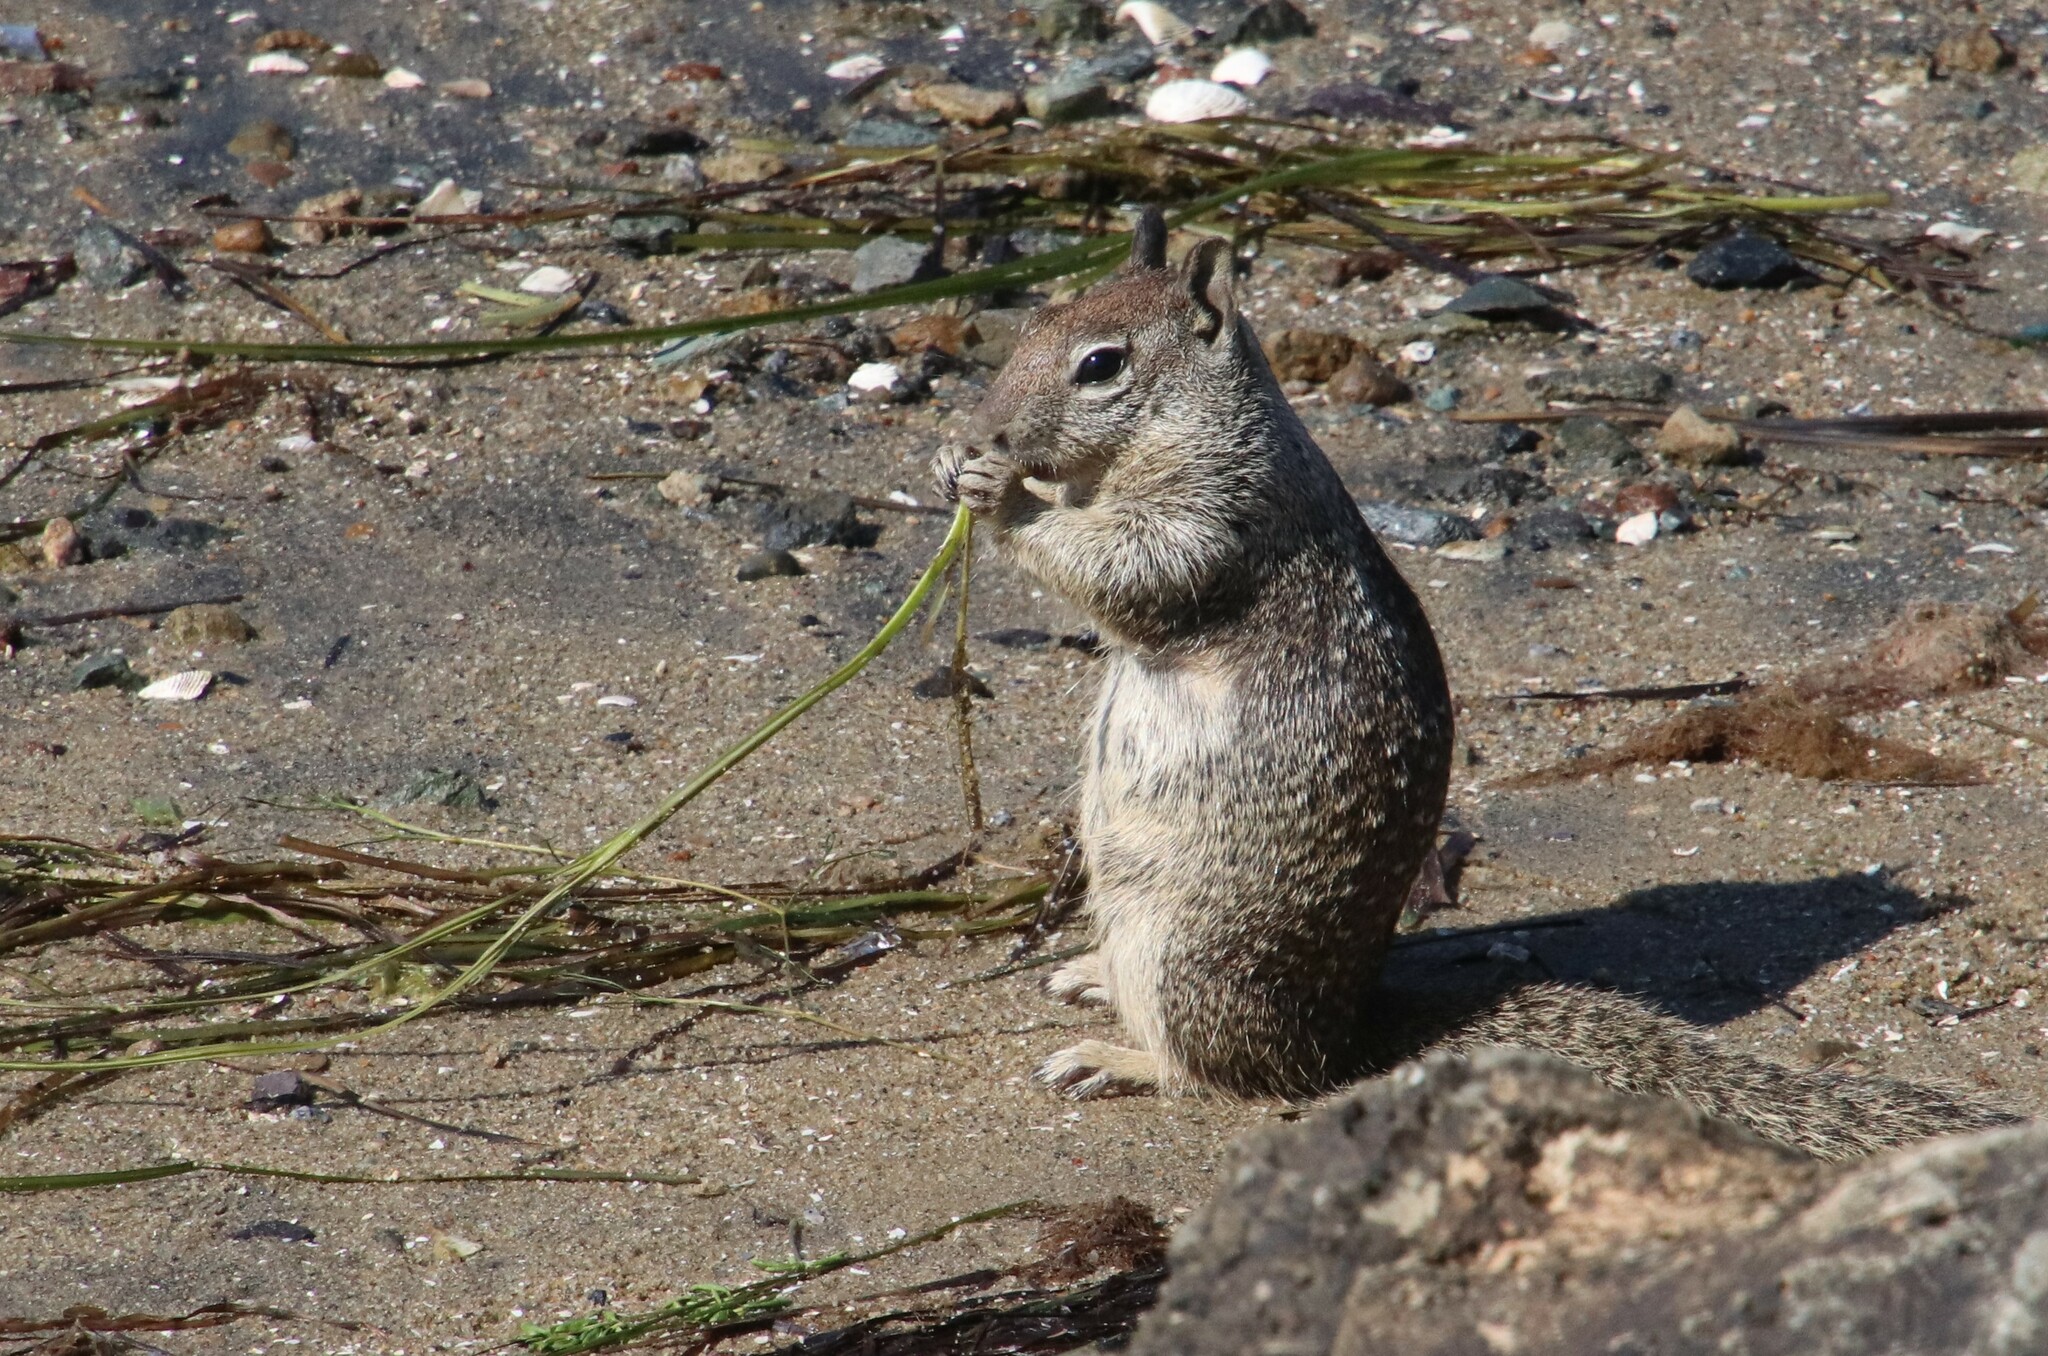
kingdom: Animalia
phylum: Chordata
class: Mammalia
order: Rodentia
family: Sciuridae
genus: Otospermophilus
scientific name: Otospermophilus beecheyi
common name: California ground squirrel
